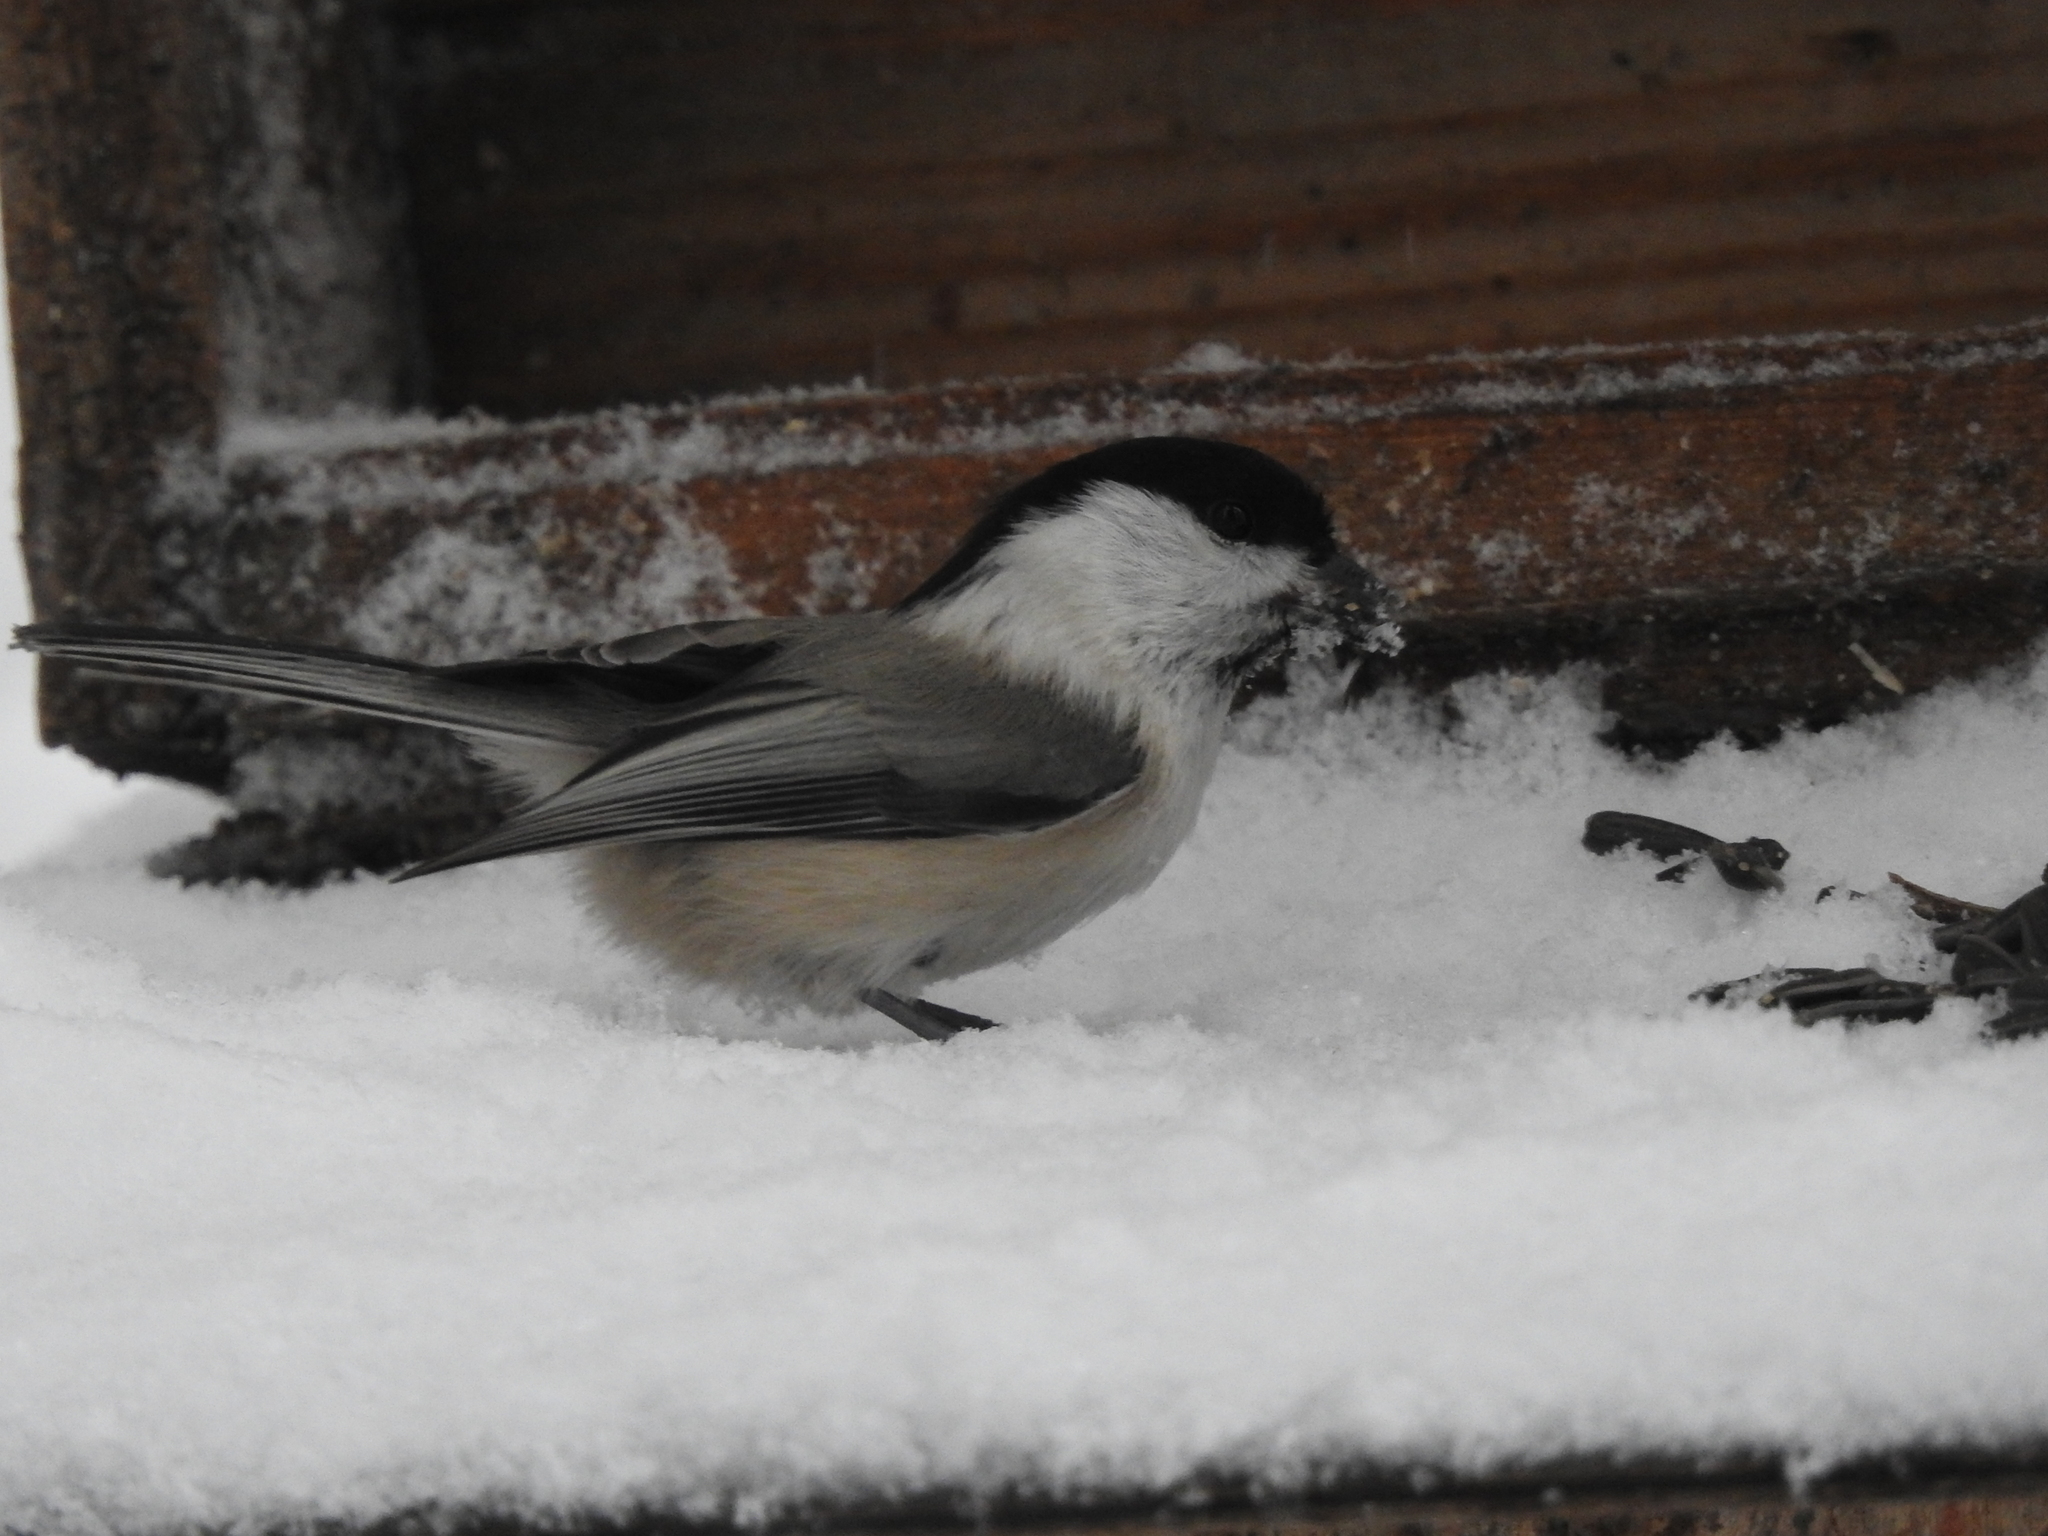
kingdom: Animalia
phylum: Chordata
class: Aves
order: Passeriformes
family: Paridae
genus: Poecile
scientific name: Poecile montanus
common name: Willow tit
